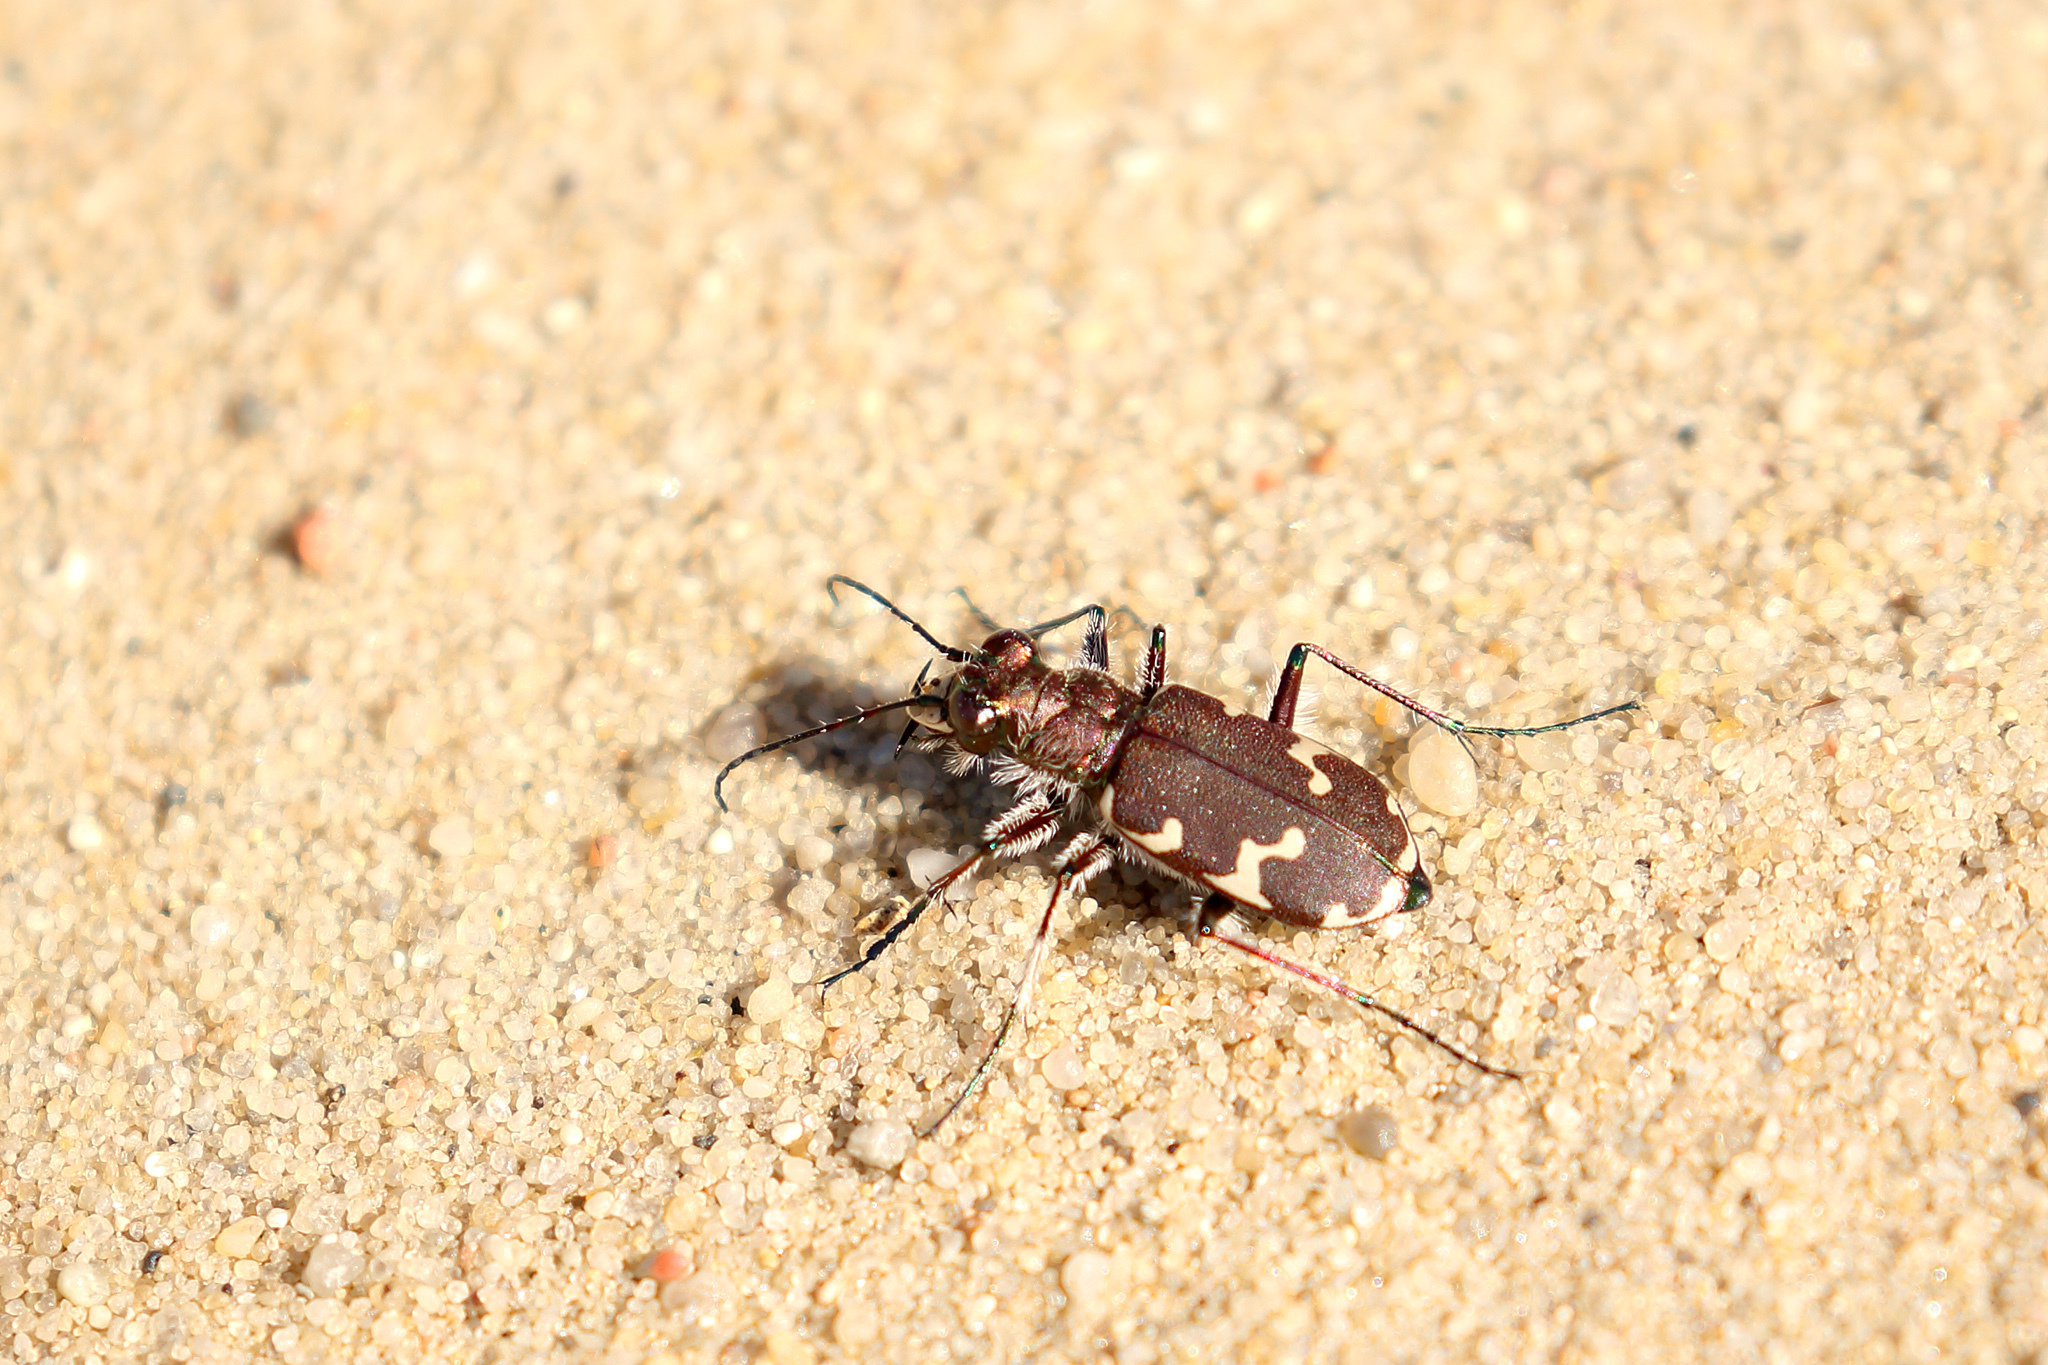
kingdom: Animalia
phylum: Arthropoda
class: Insecta
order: Coleoptera
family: Carabidae
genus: Cicindela
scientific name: Cicindela hybrida
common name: Northern dune tiger beetle
